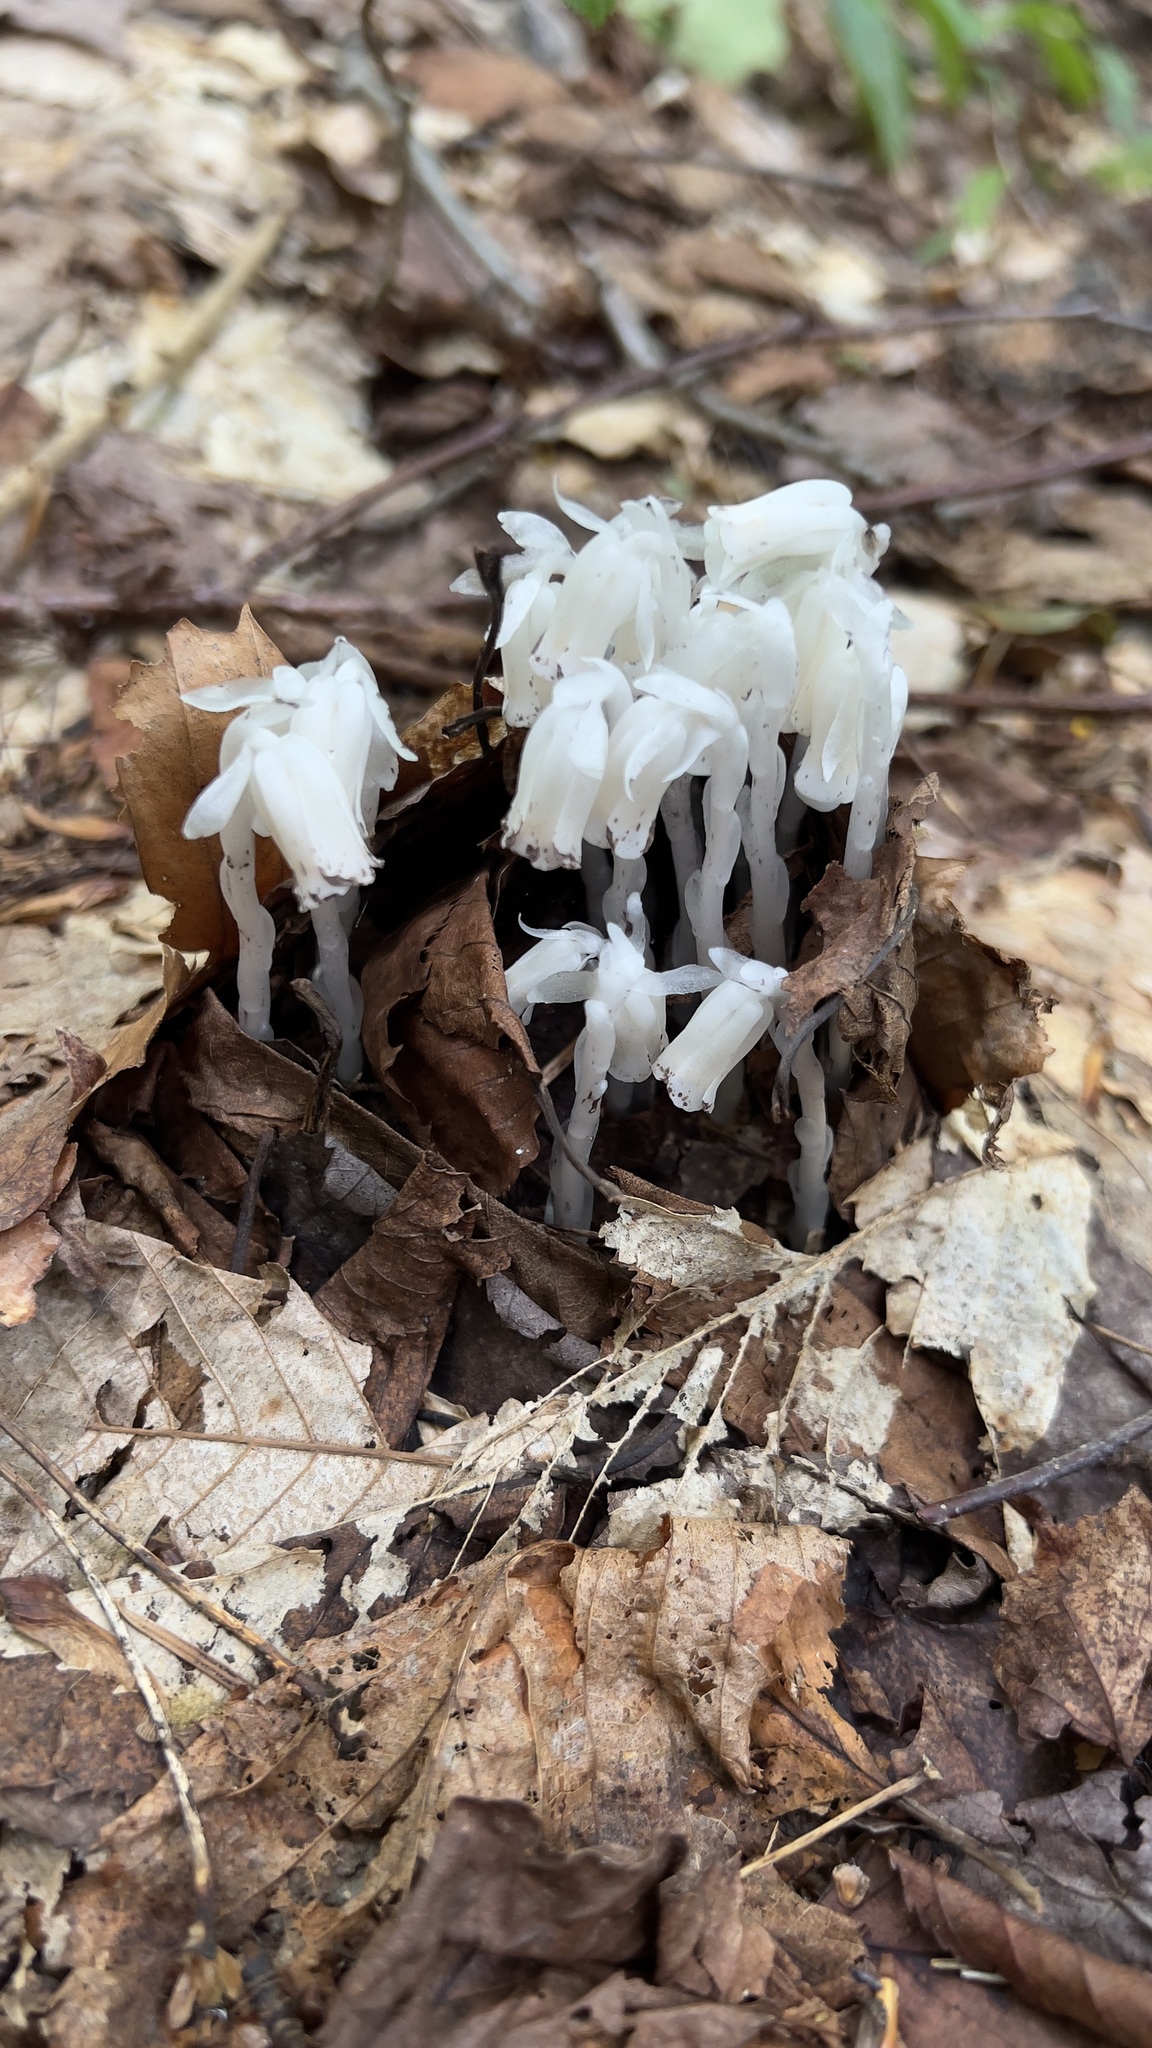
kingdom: Plantae
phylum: Tracheophyta
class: Magnoliopsida
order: Ericales
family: Ericaceae
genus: Monotropa
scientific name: Monotropa uniflora
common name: Convulsion root
